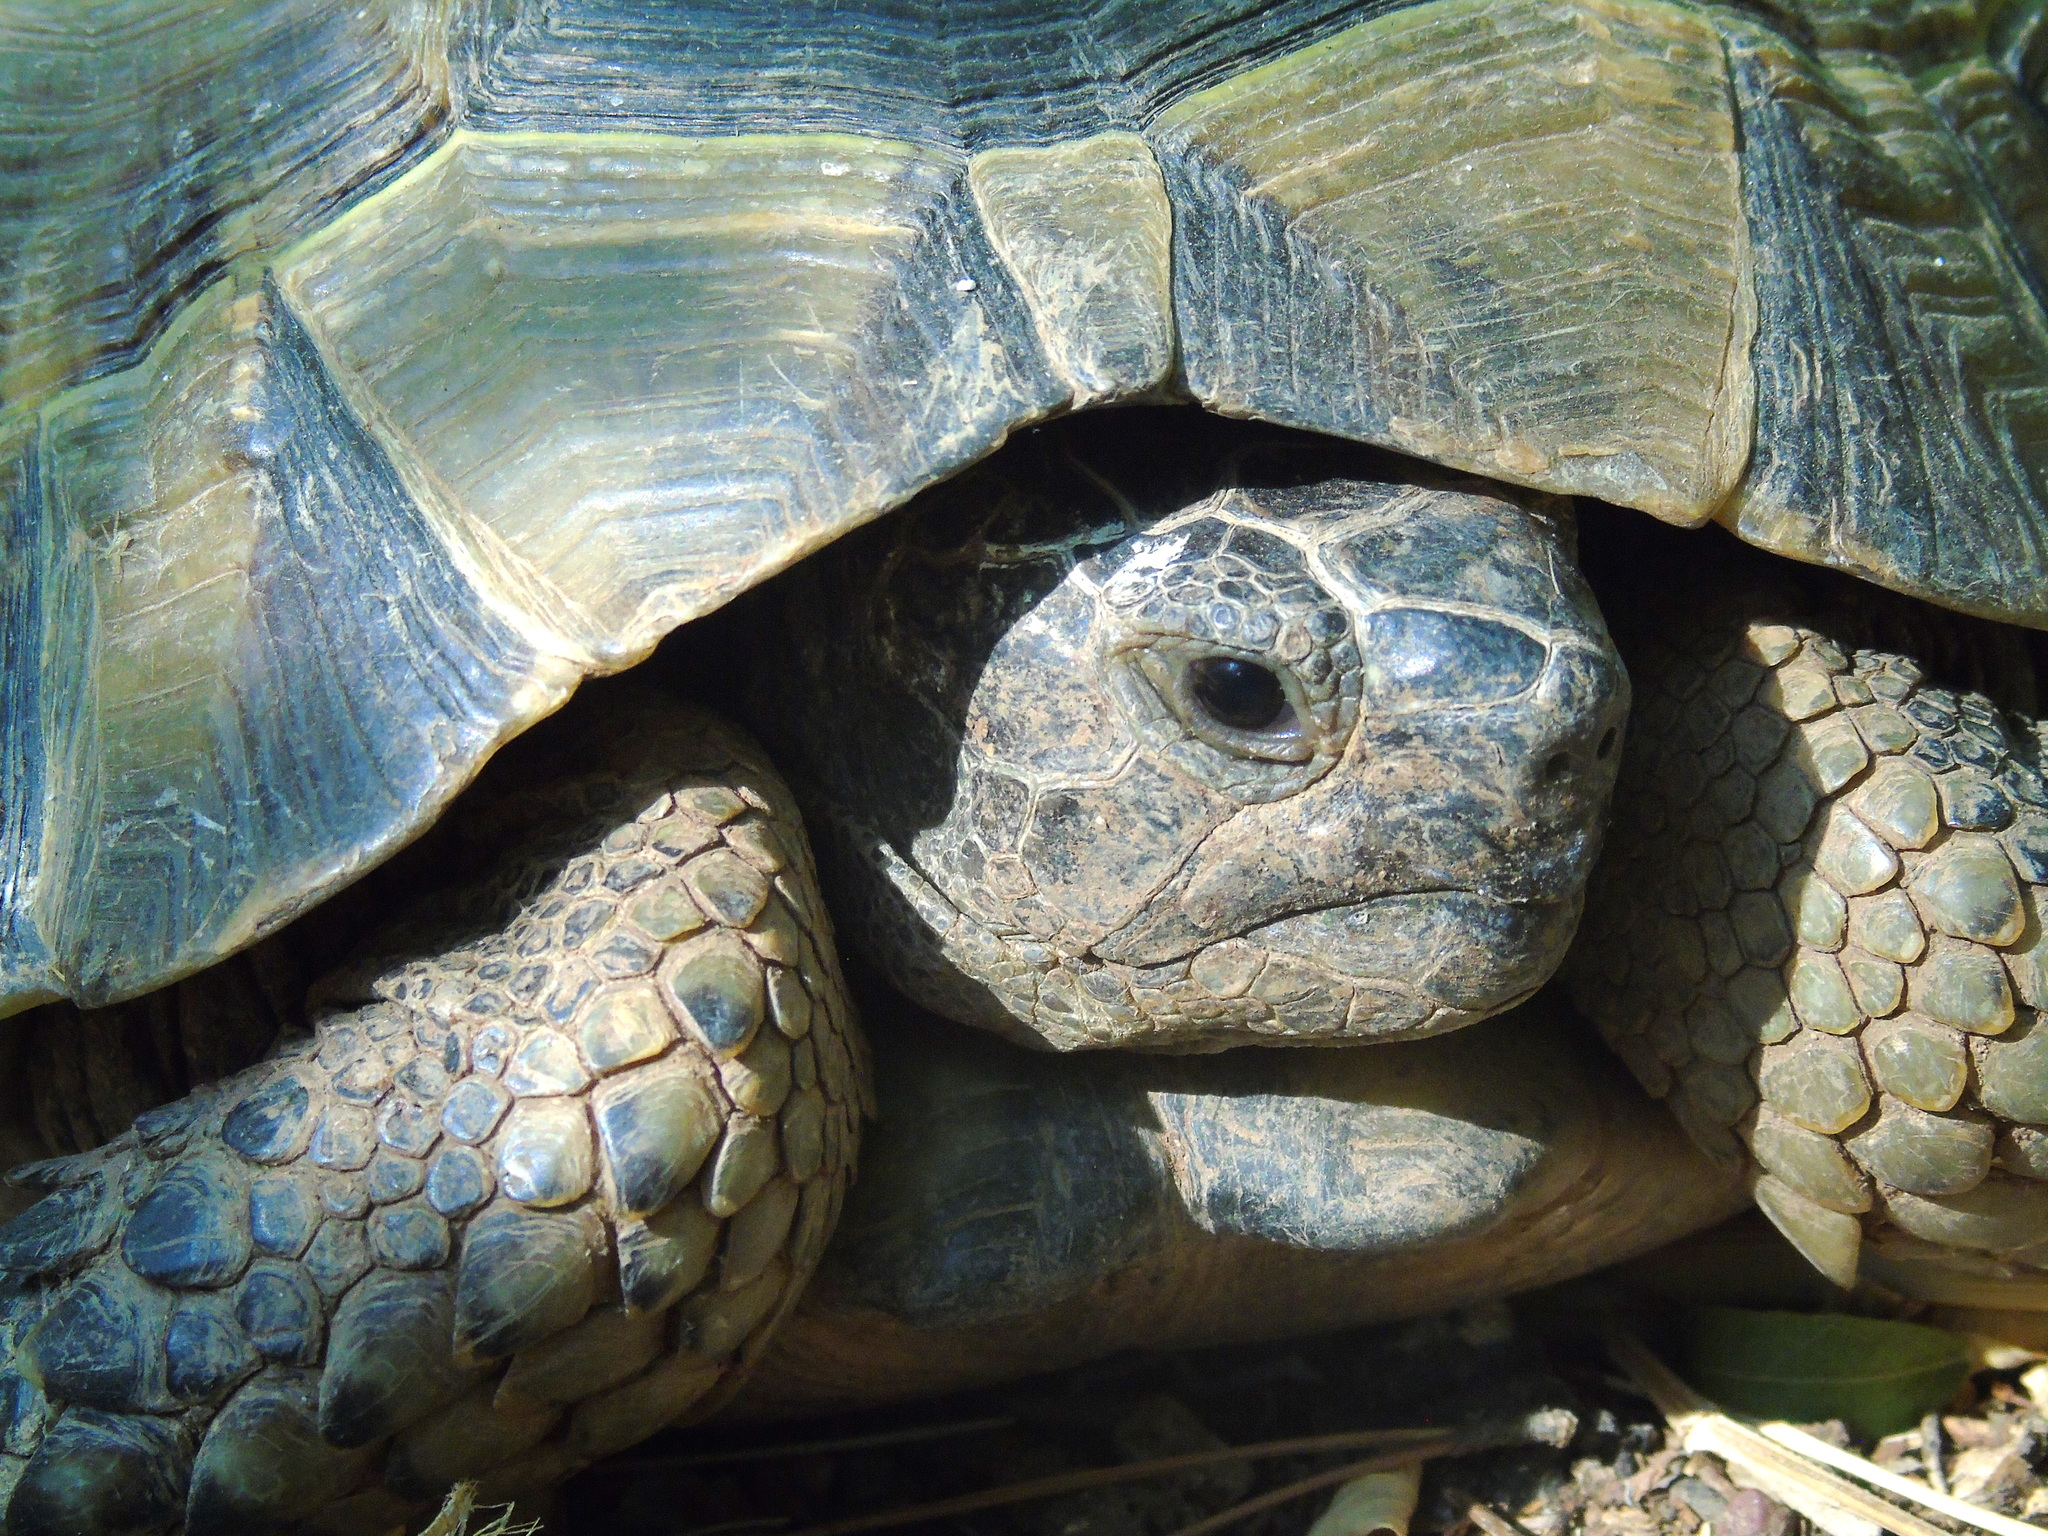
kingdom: Animalia
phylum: Chordata
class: Testudines
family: Testudinidae
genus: Testudo
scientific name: Testudo graeca
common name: Common tortoise
